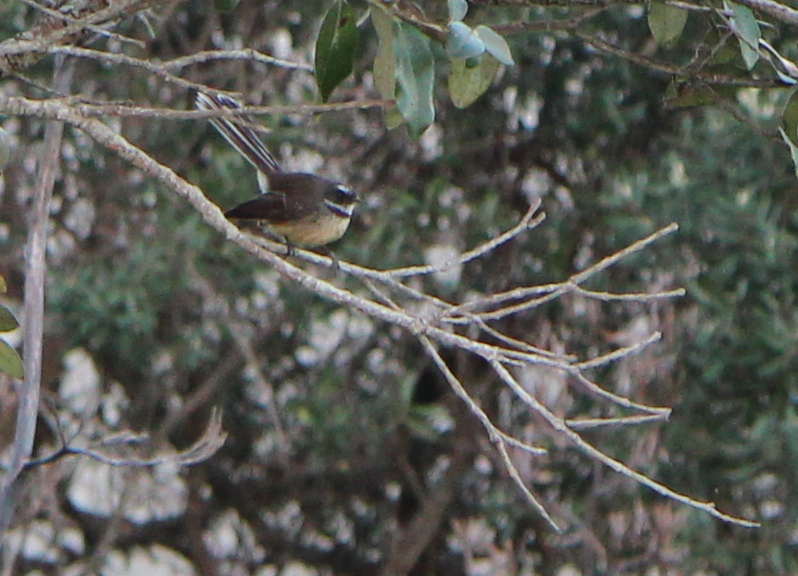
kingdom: Animalia
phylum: Chordata
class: Aves
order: Passeriformes
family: Rhipiduridae
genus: Rhipidura
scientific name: Rhipidura fuliginosa
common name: New zealand fantail
